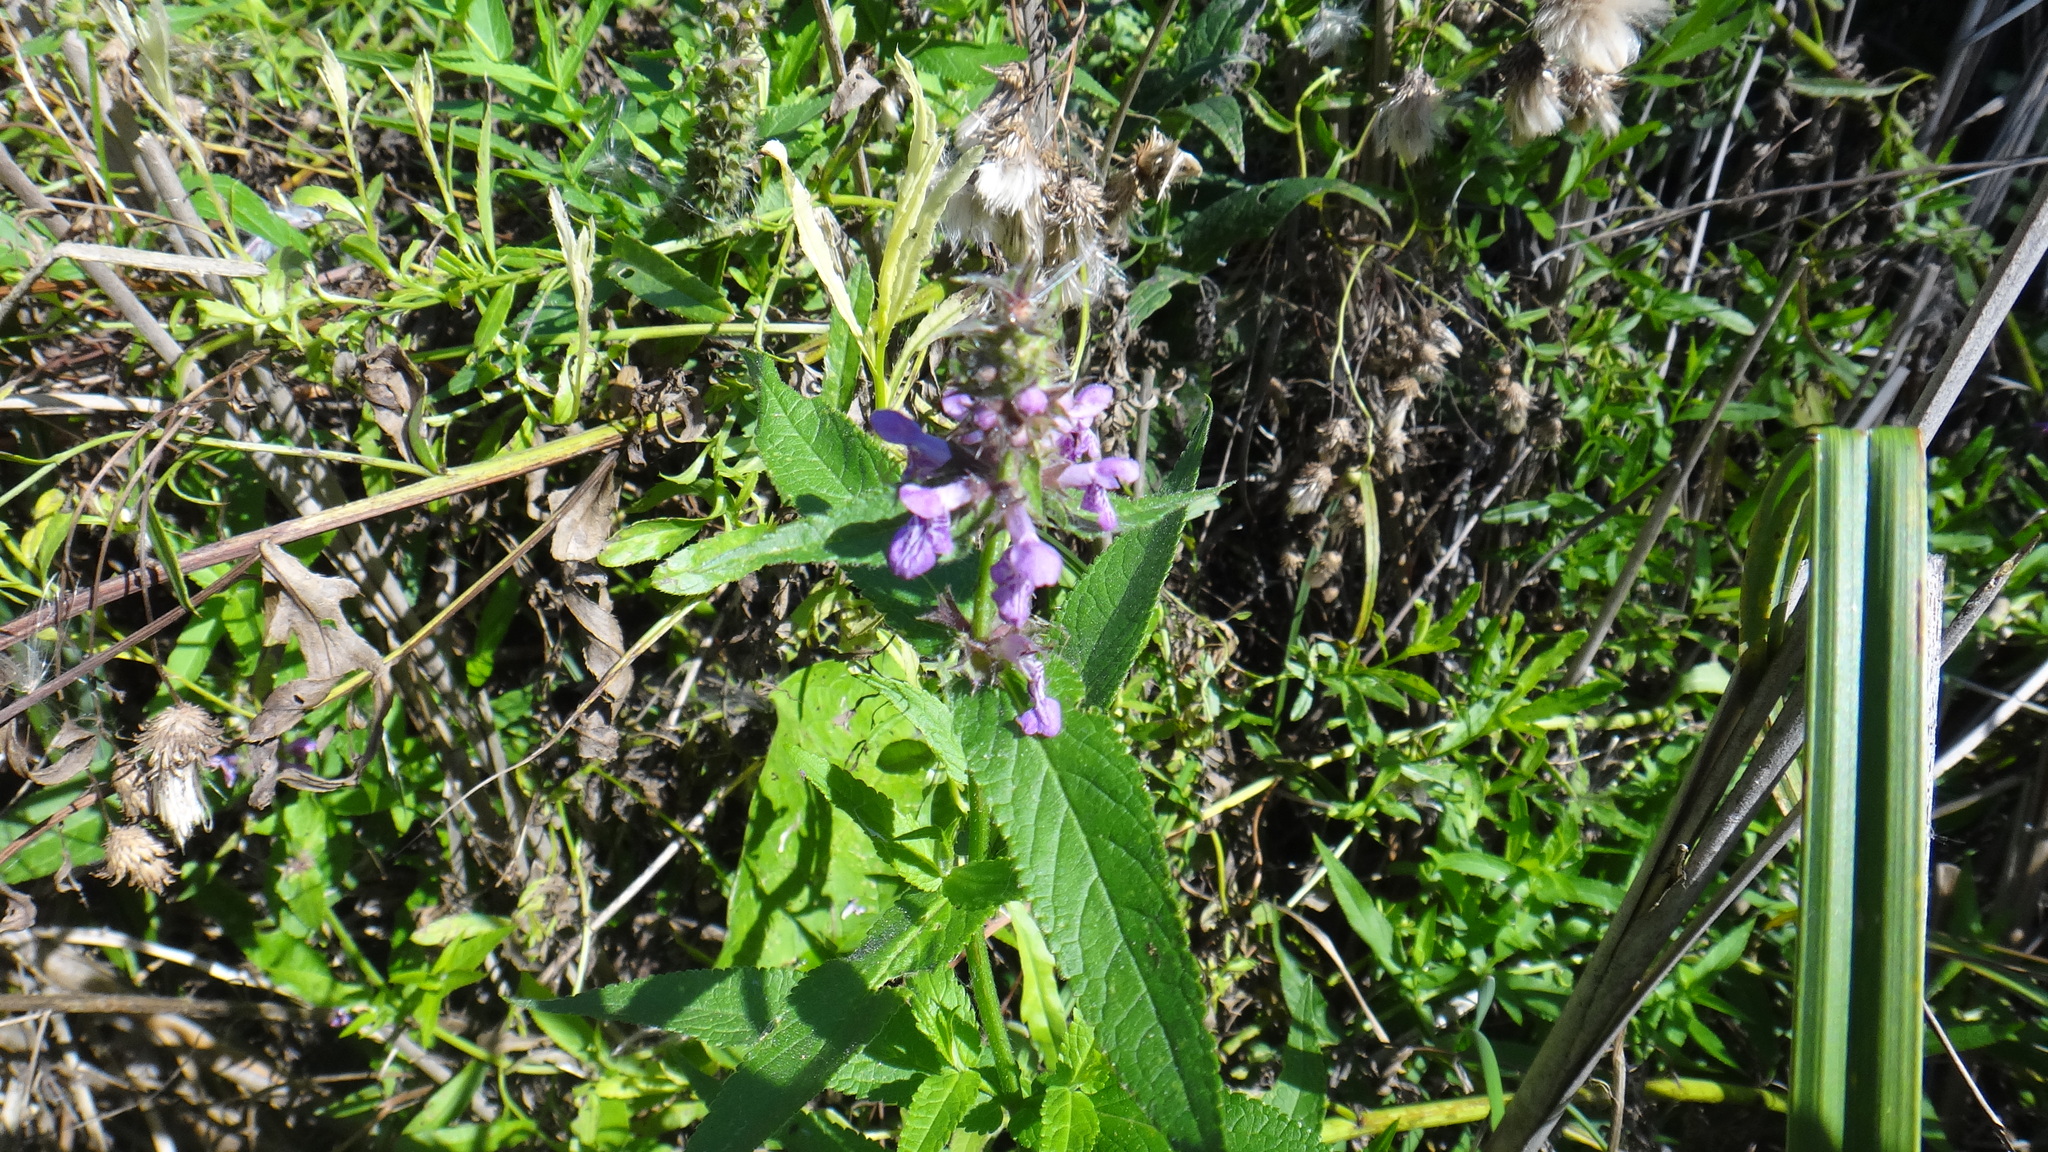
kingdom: Plantae
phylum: Tracheophyta
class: Magnoliopsida
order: Lamiales
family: Lamiaceae
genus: Stachys
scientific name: Stachys palustris
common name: Marsh woundwort
